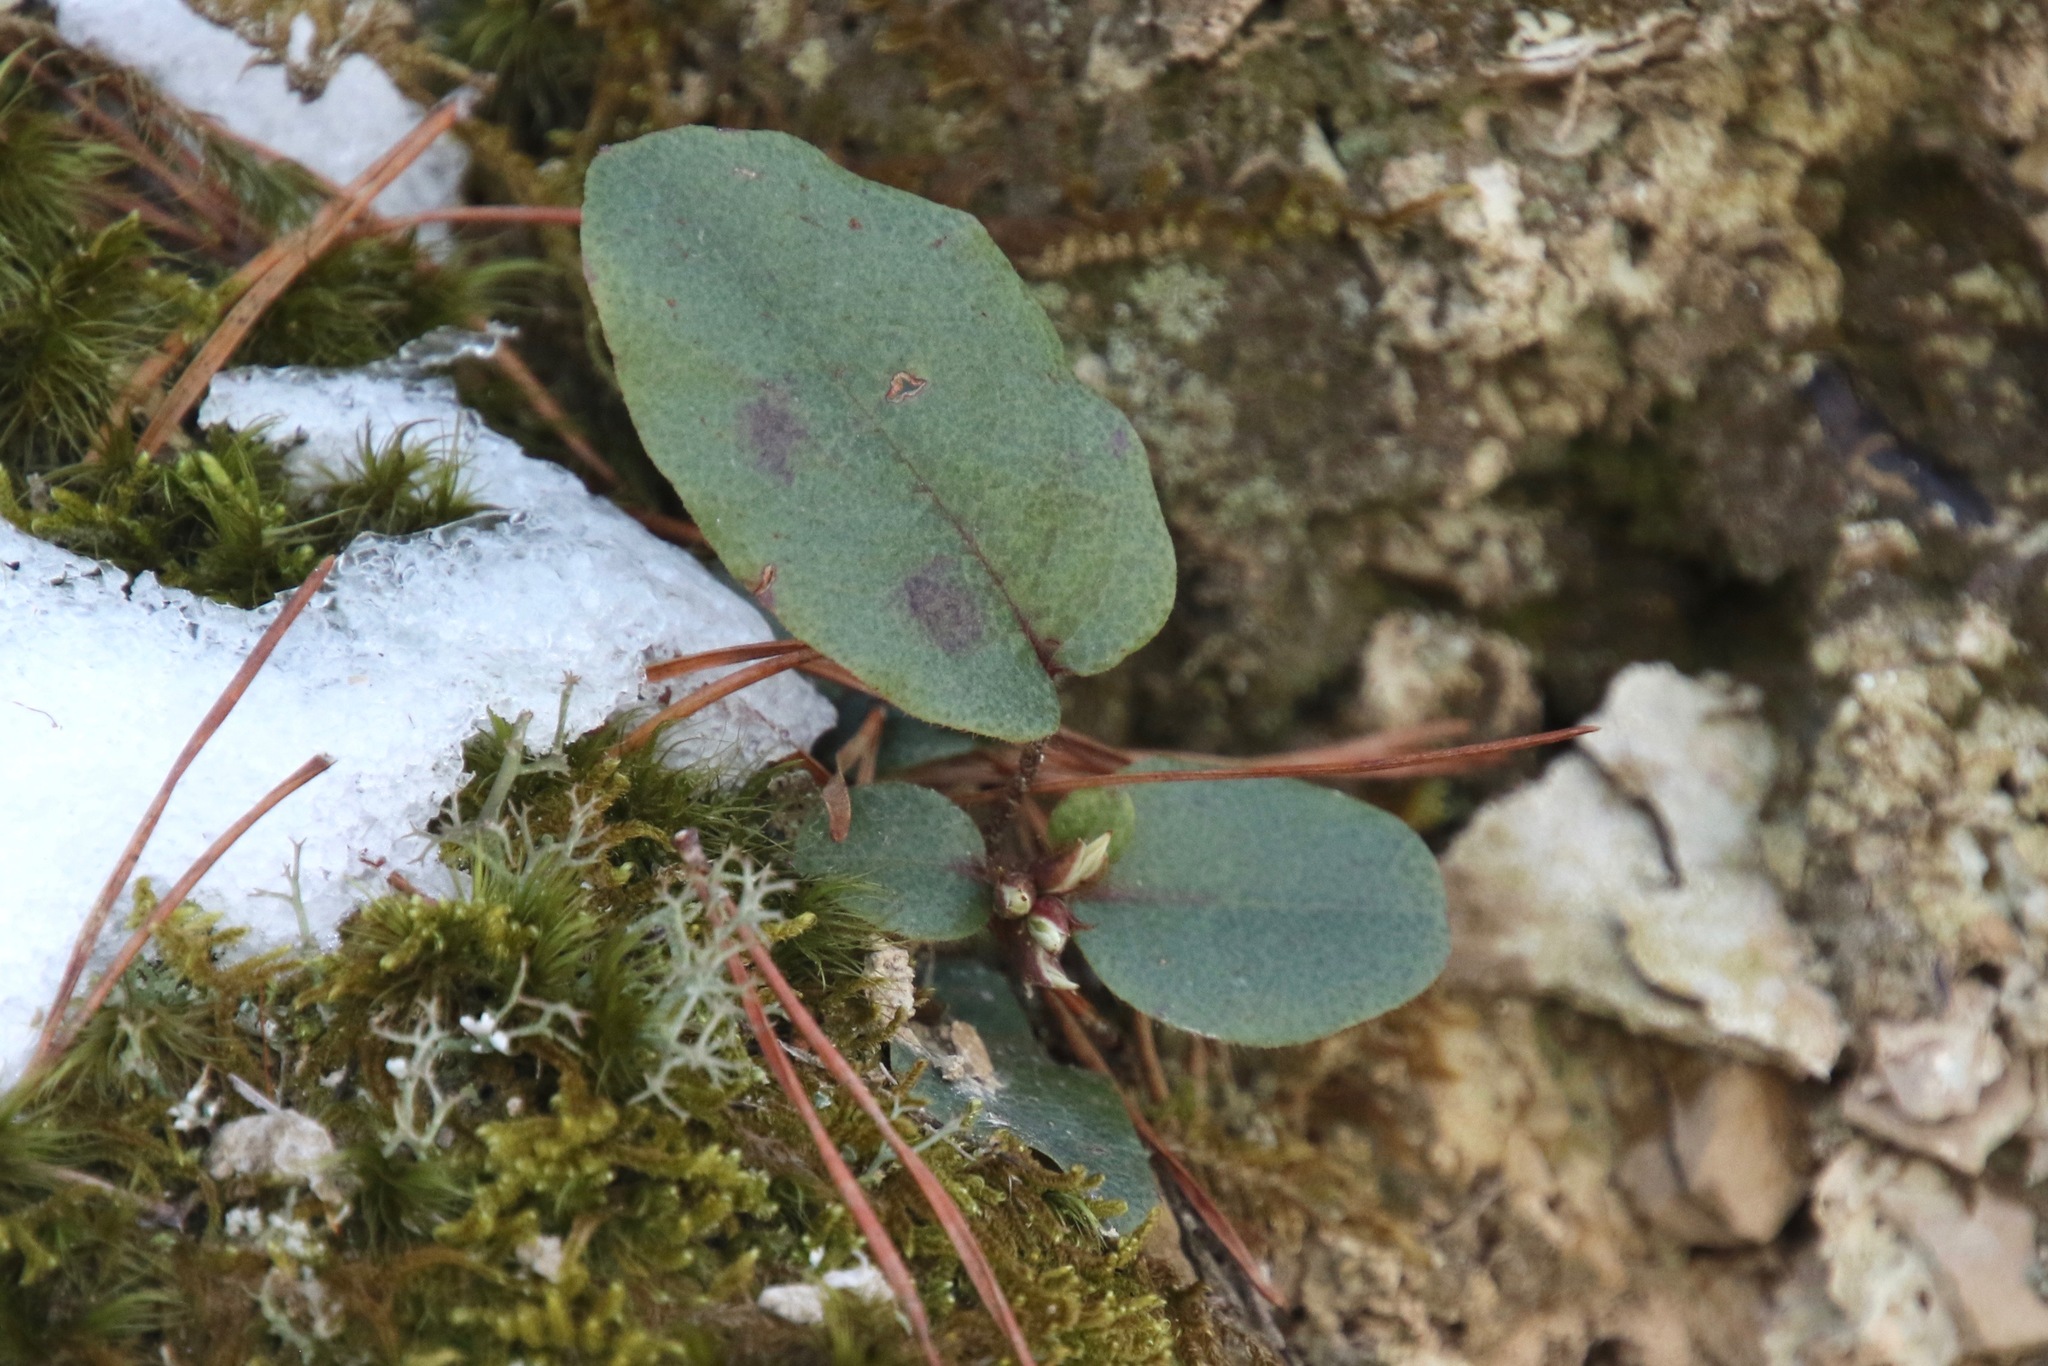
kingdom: Plantae
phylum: Tracheophyta
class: Magnoliopsida
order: Ericales
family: Ericaceae
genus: Epigaea
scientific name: Epigaea repens
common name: Gravelroot
